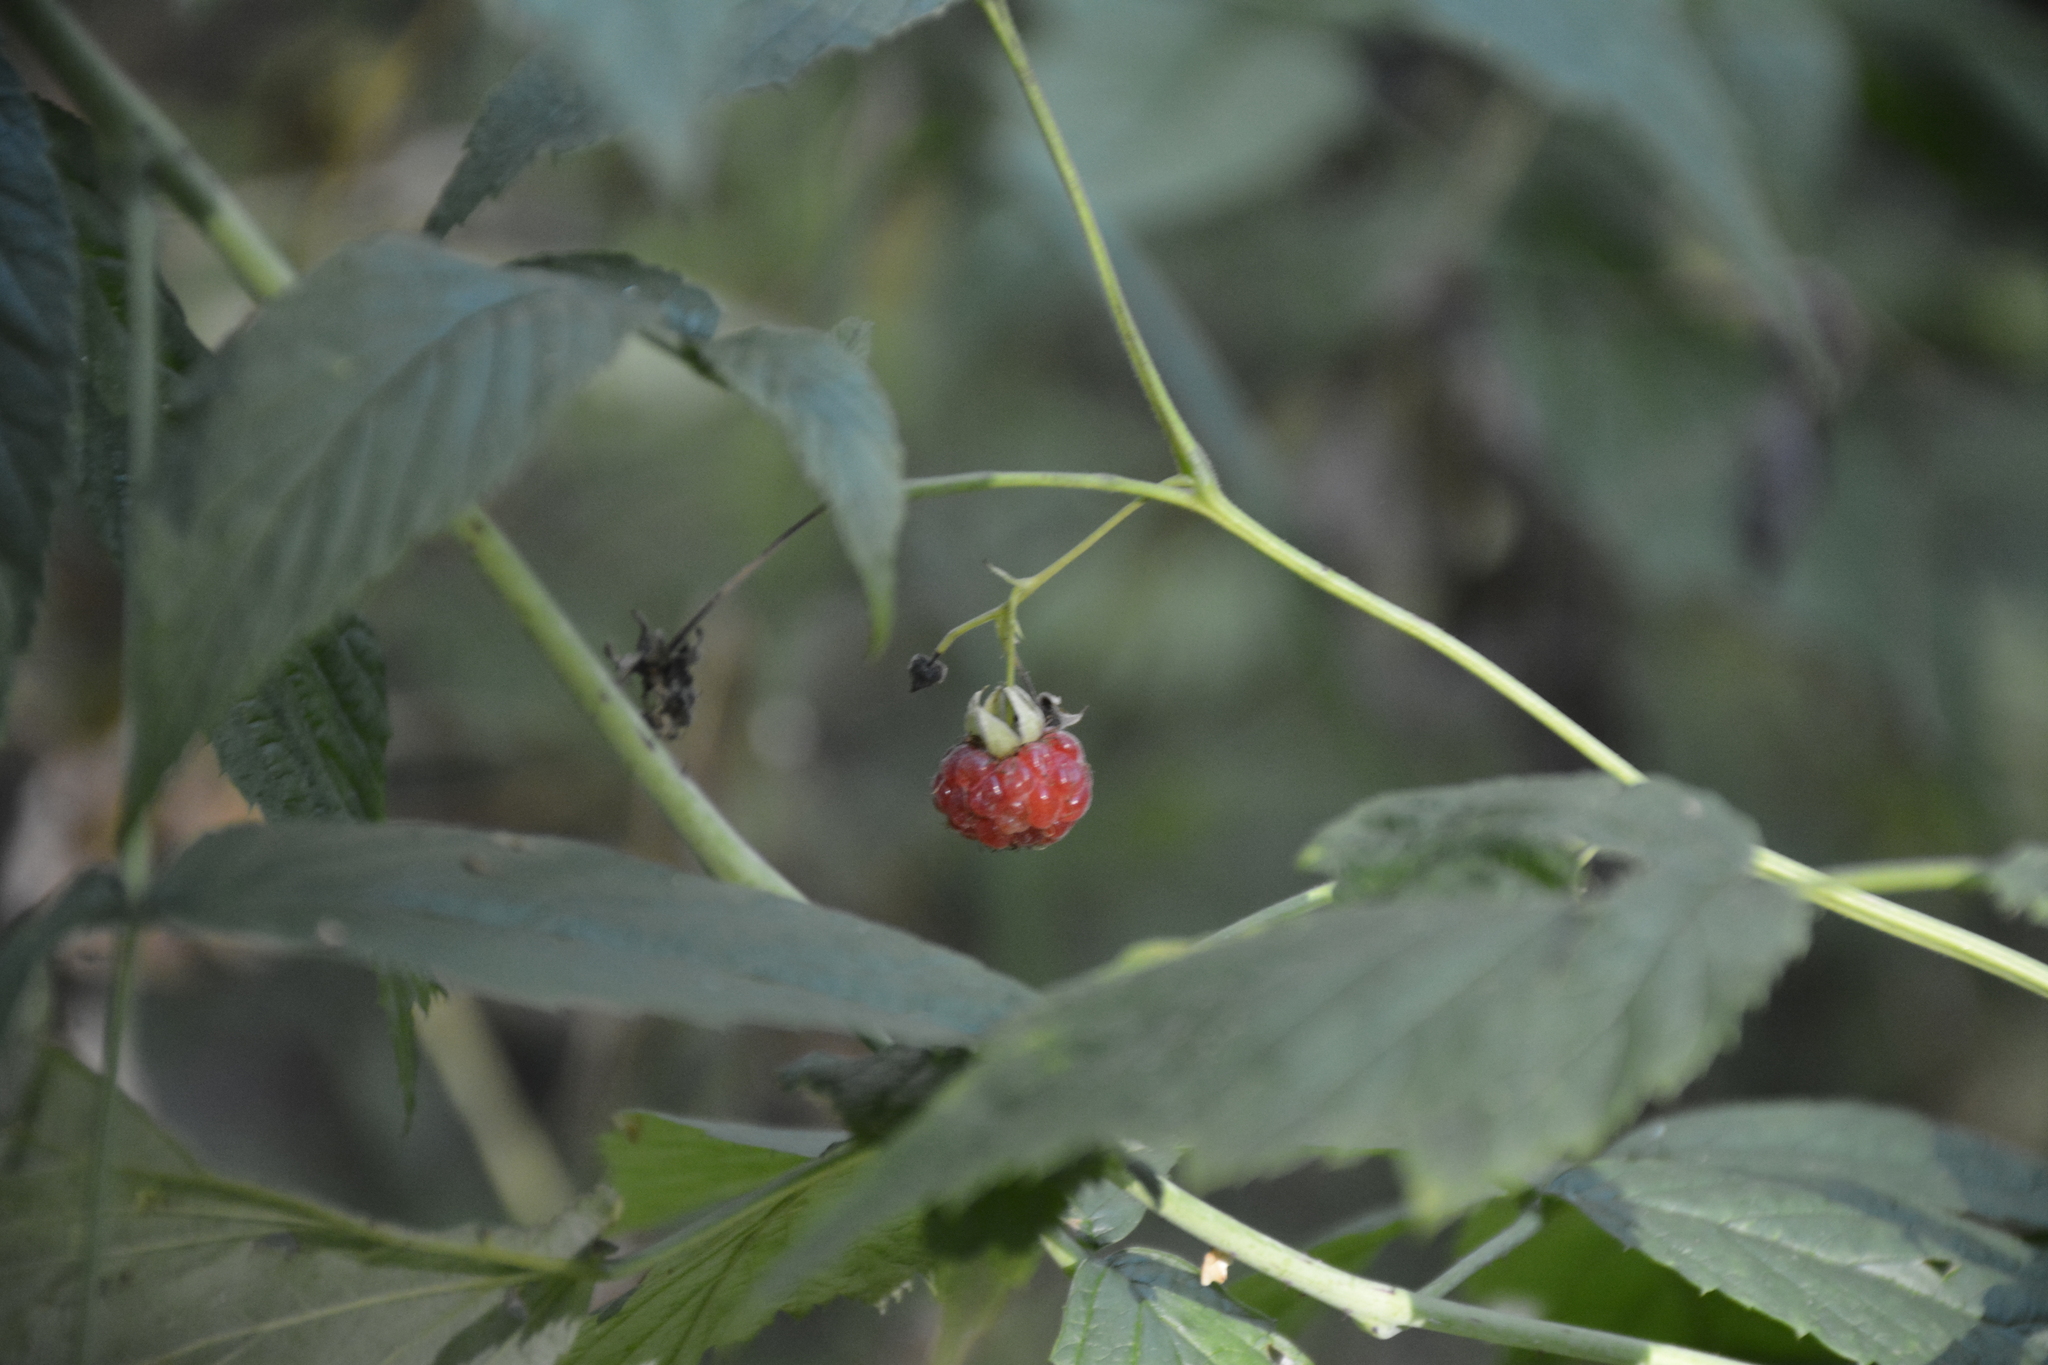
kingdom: Plantae
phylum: Tracheophyta
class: Magnoliopsida
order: Rosales
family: Rosaceae
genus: Rubus
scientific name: Rubus idaeus
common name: Raspberry
